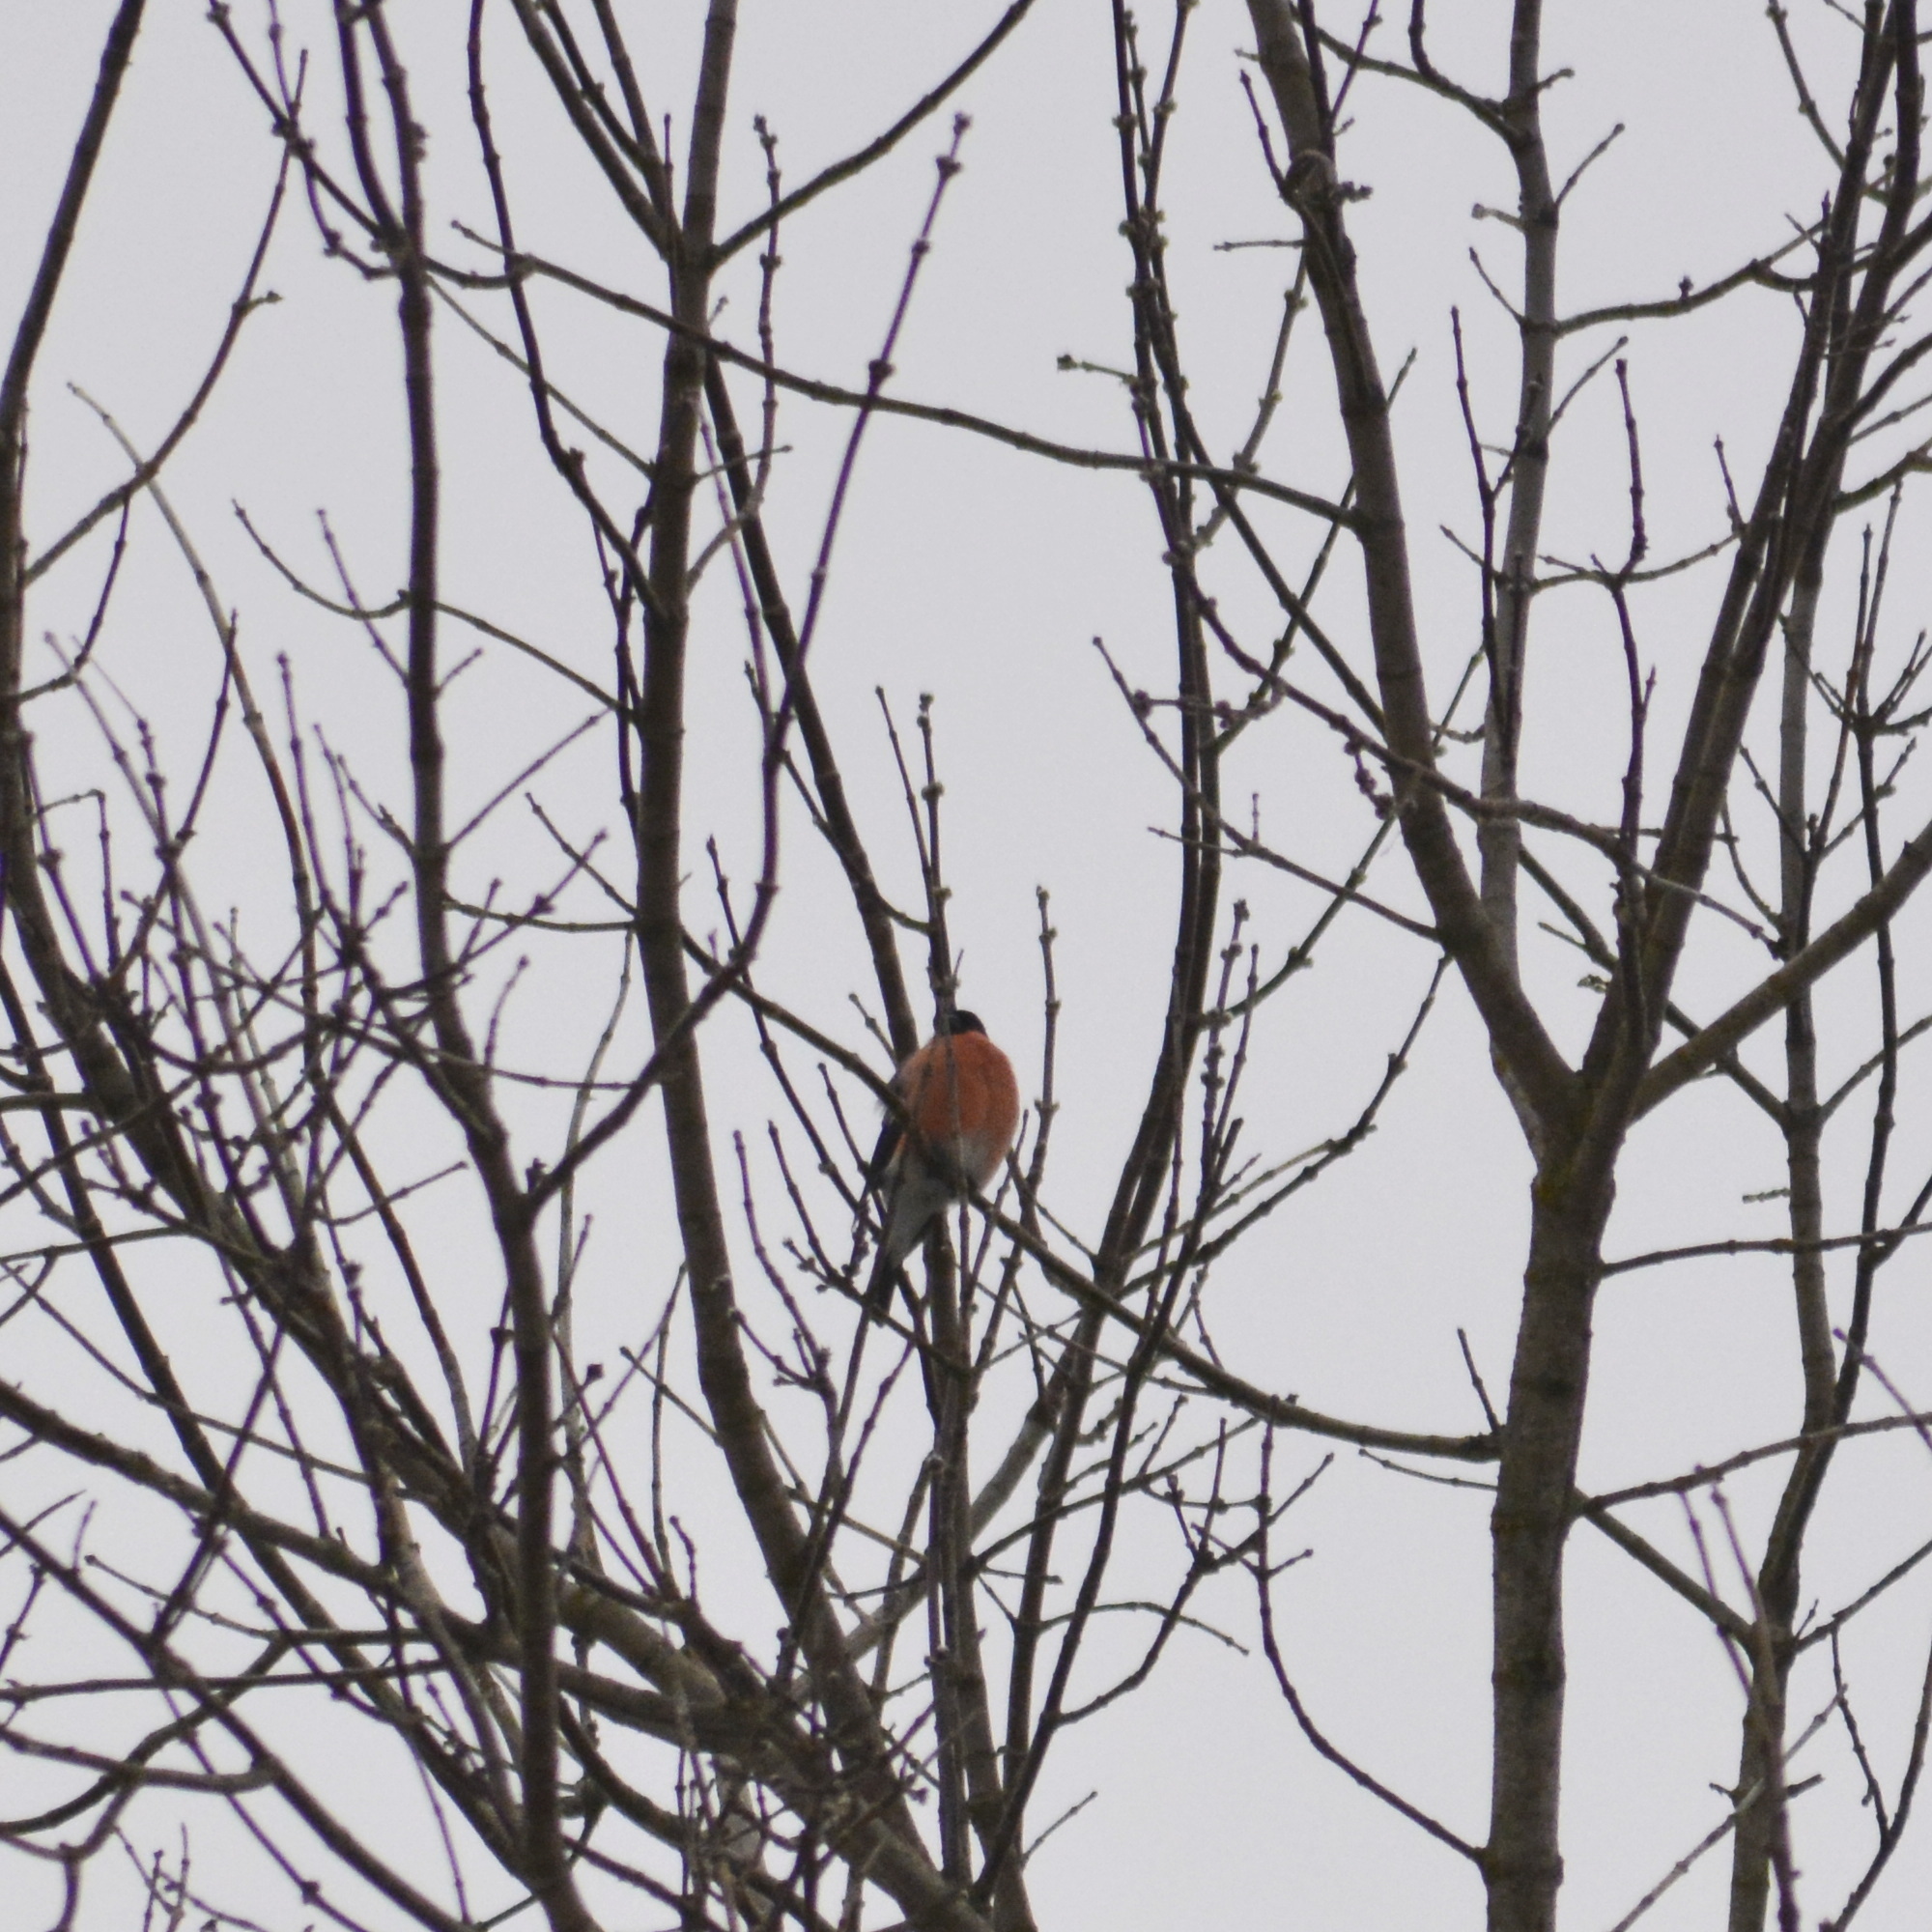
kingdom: Animalia
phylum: Chordata
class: Aves
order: Passeriformes
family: Fringillidae
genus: Pyrrhula
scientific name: Pyrrhula pyrrhula
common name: Eurasian bullfinch
